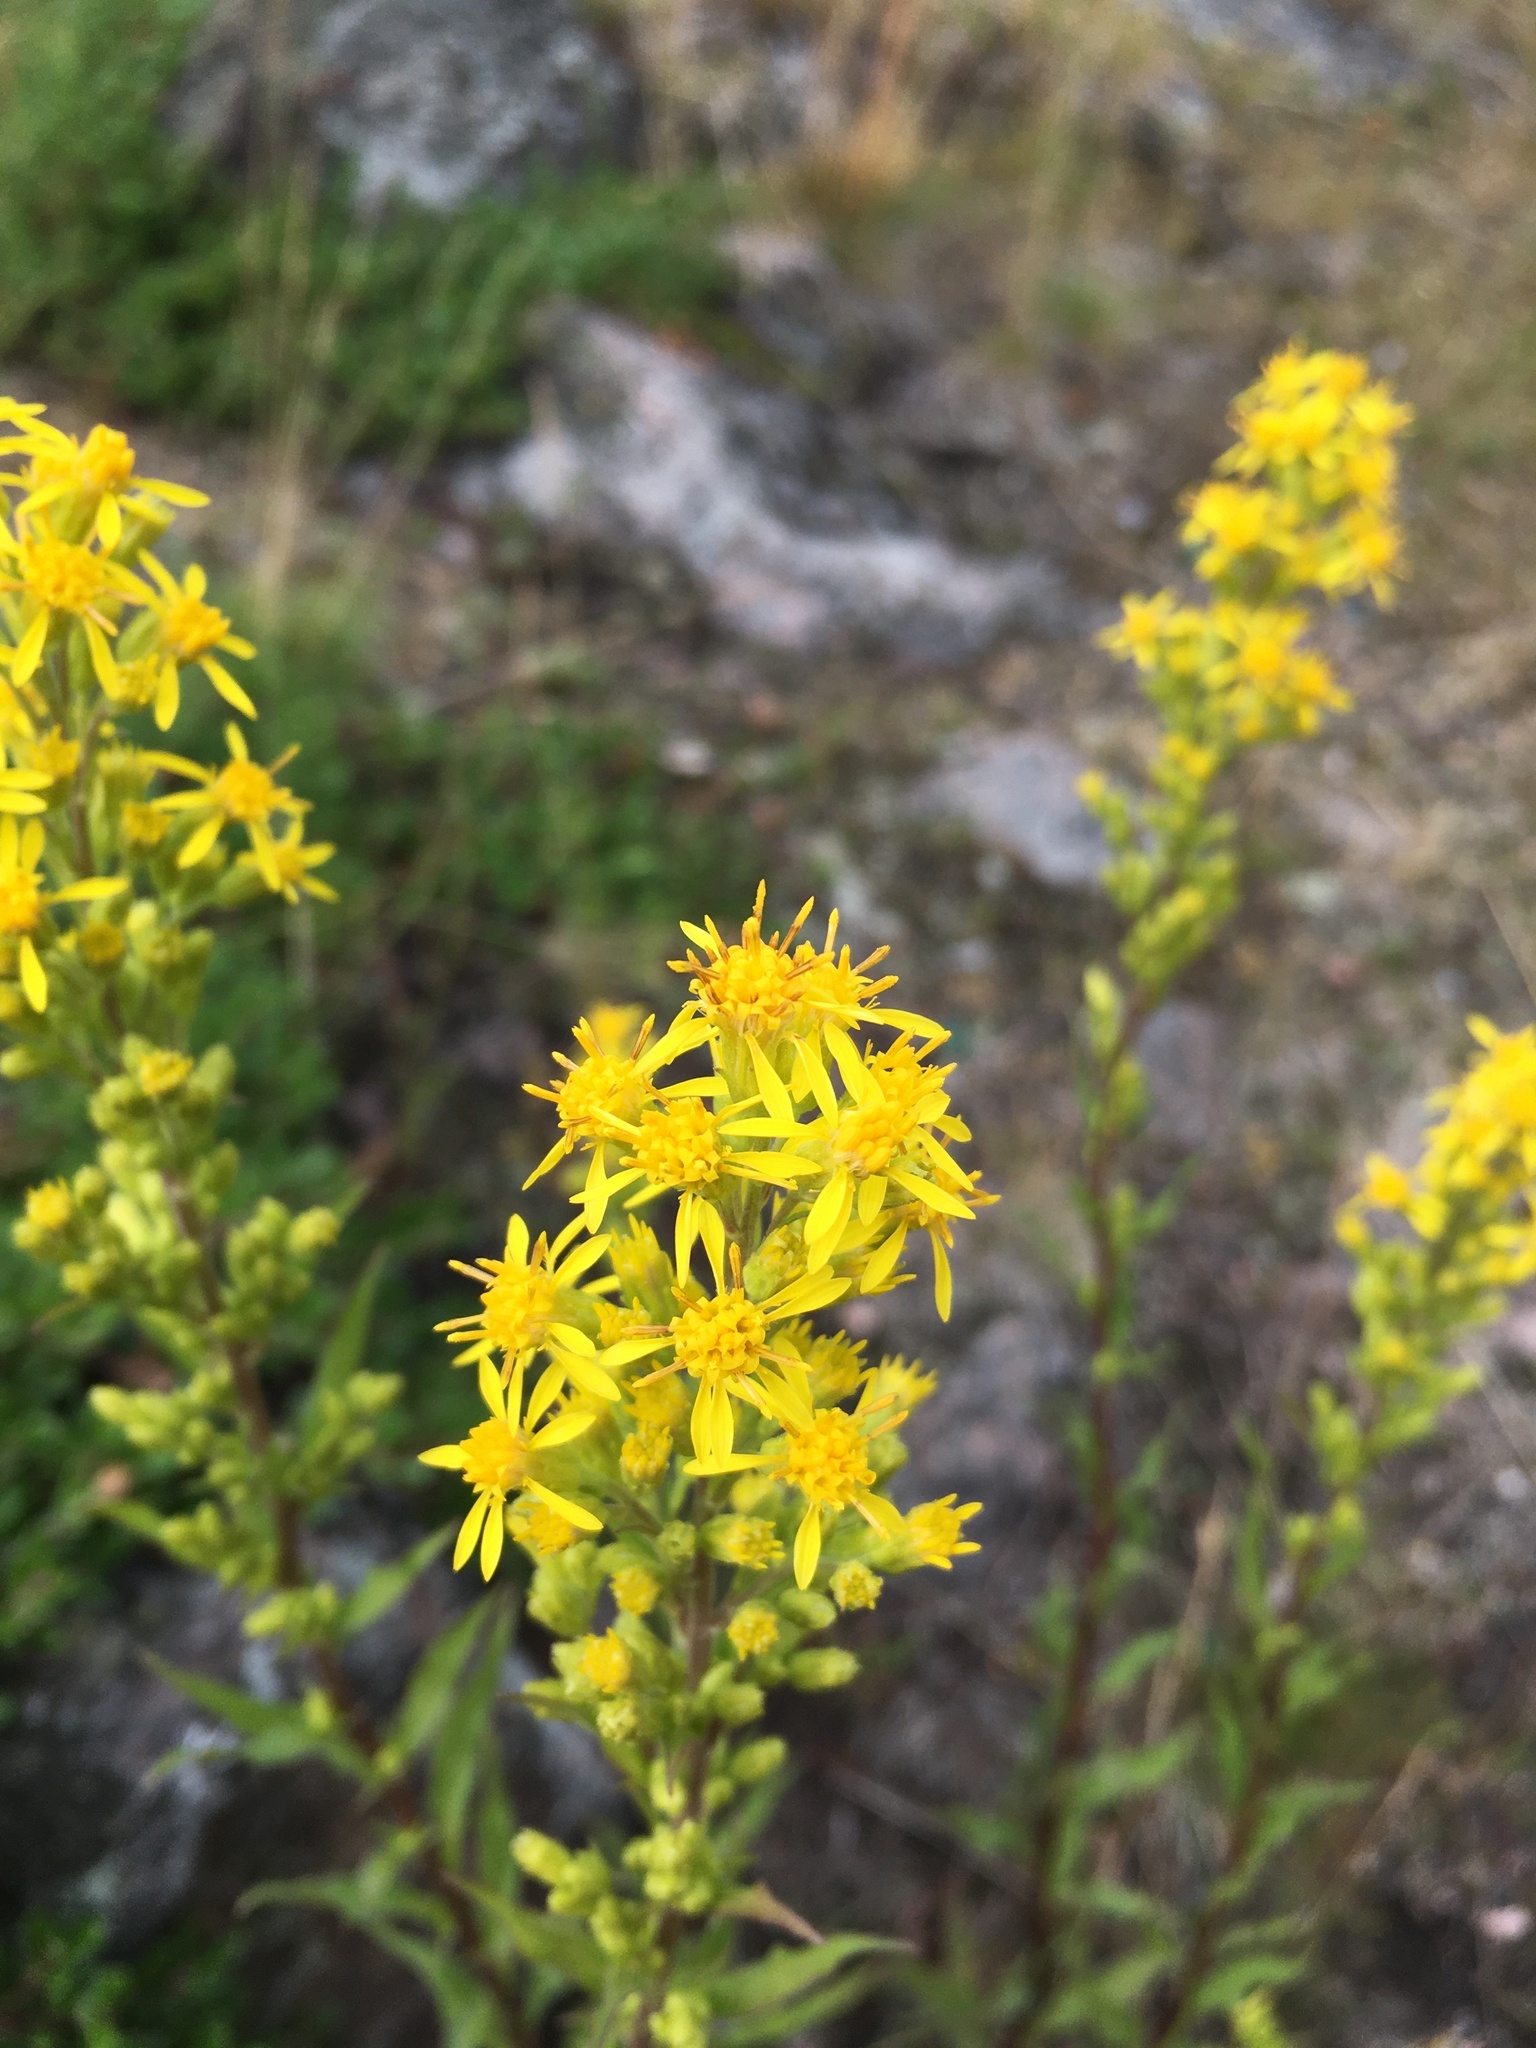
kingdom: Plantae
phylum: Tracheophyta
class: Magnoliopsida
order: Asterales
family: Asteraceae
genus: Solidago
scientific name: Solidago virgaurea
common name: Goldenrod
